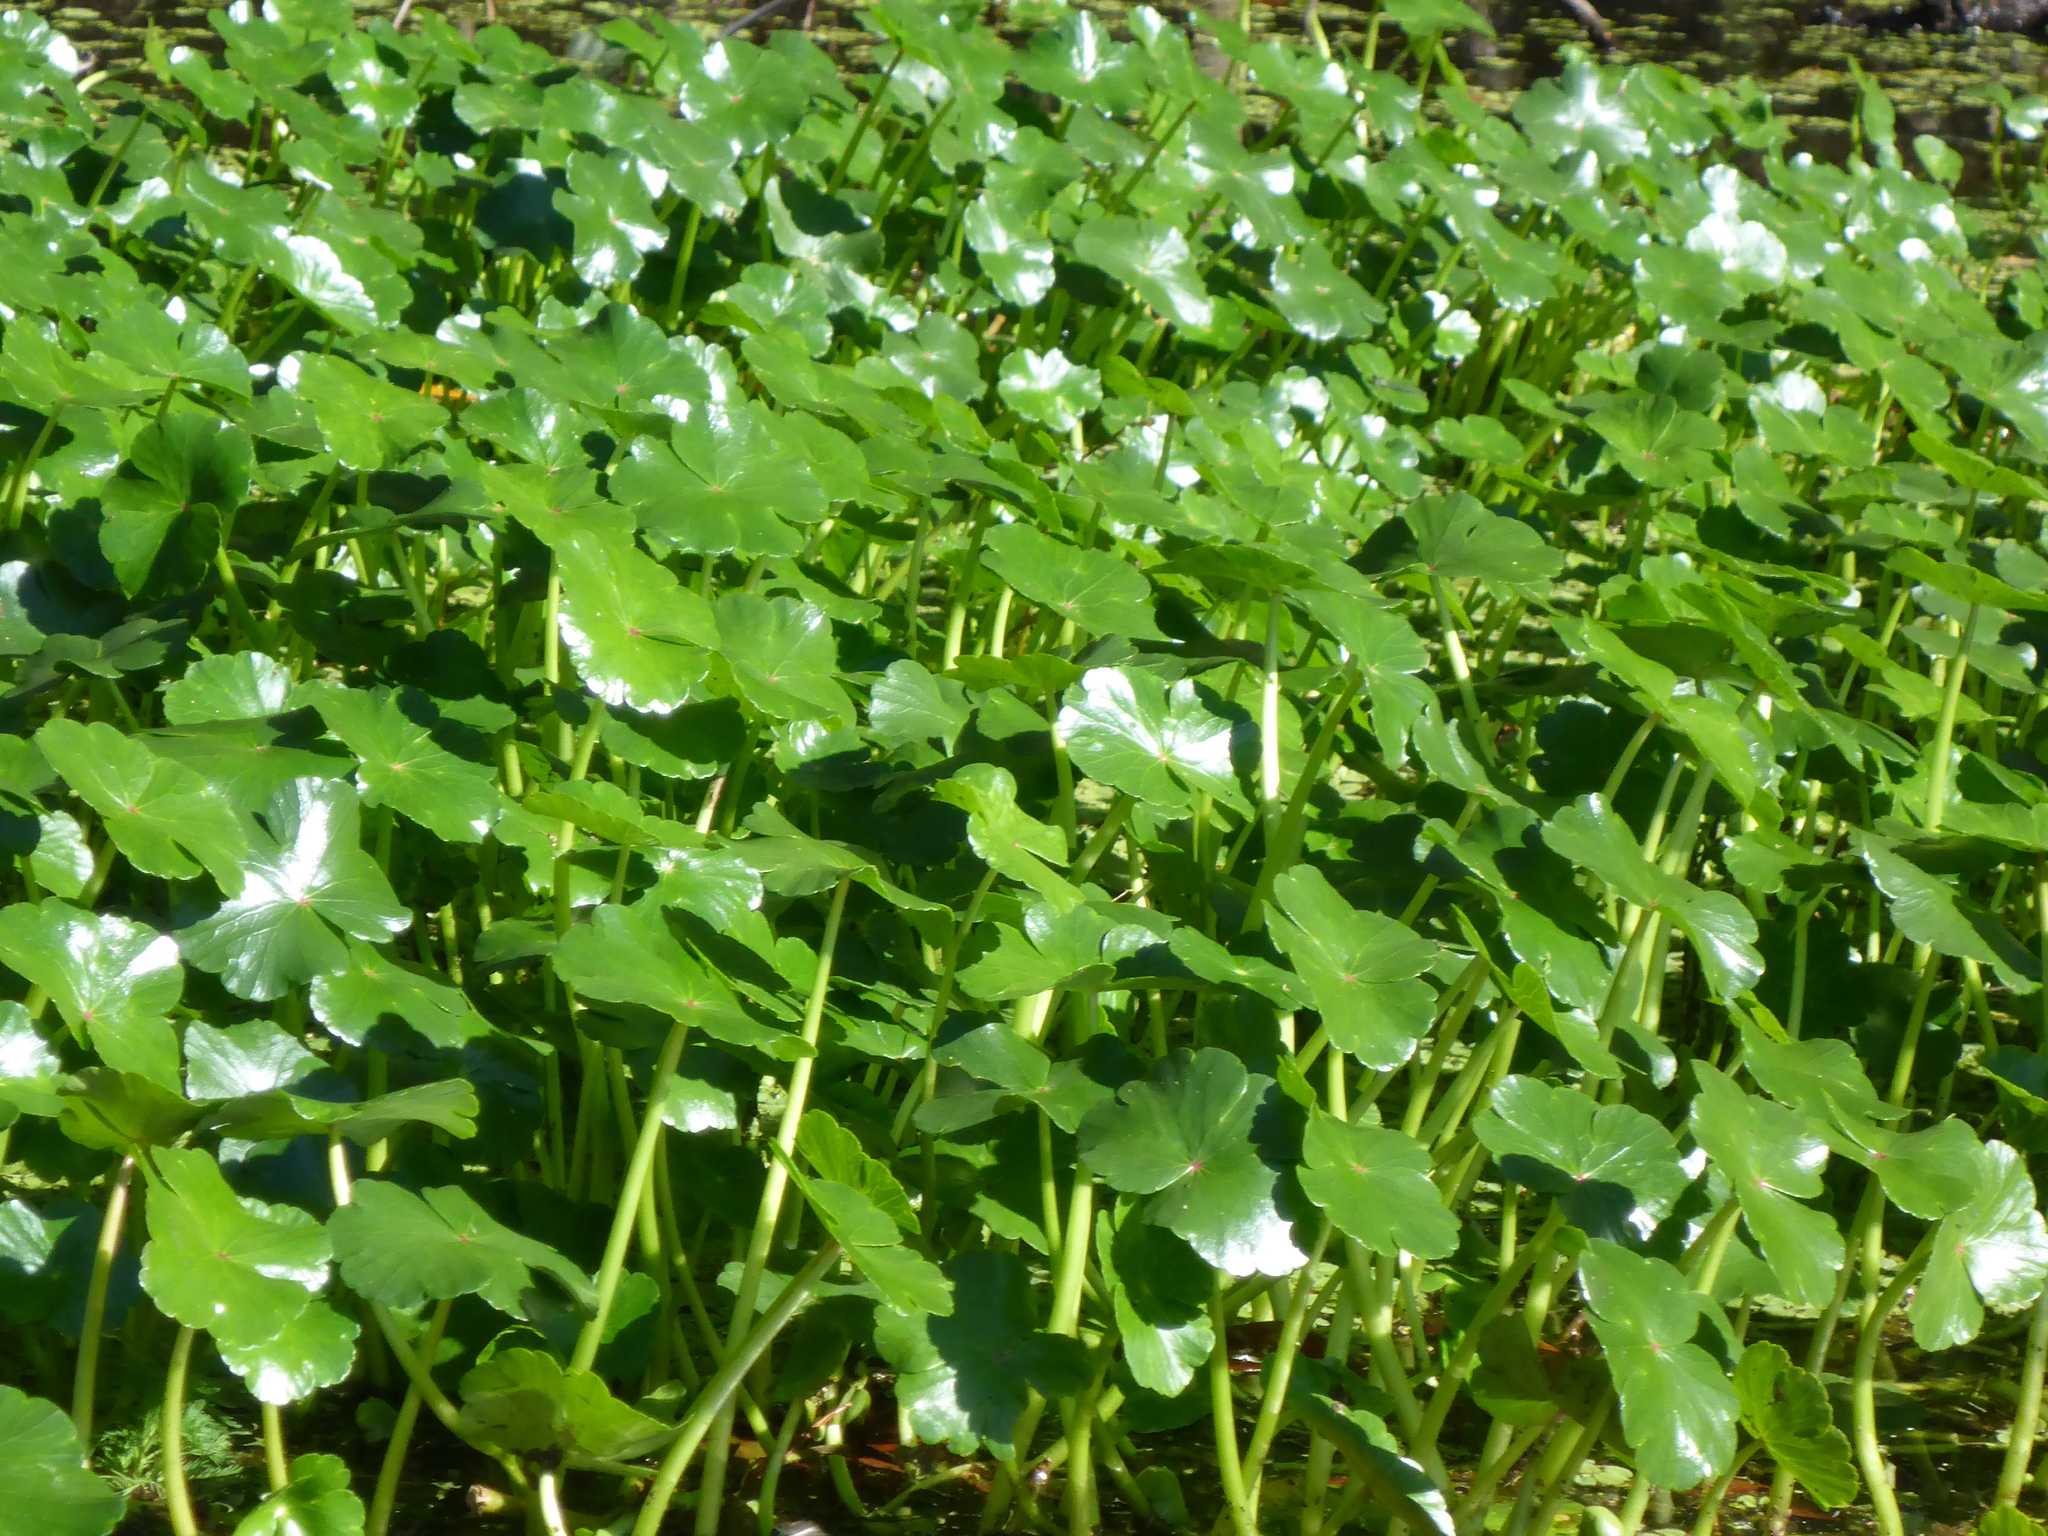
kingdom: Plantae
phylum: Tracheophyta
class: Magnoliopsida
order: Apiales
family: Araliaceae
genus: Hydrocotyle
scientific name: Hydrocotyle ranunculoides
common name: Floating pennywort
